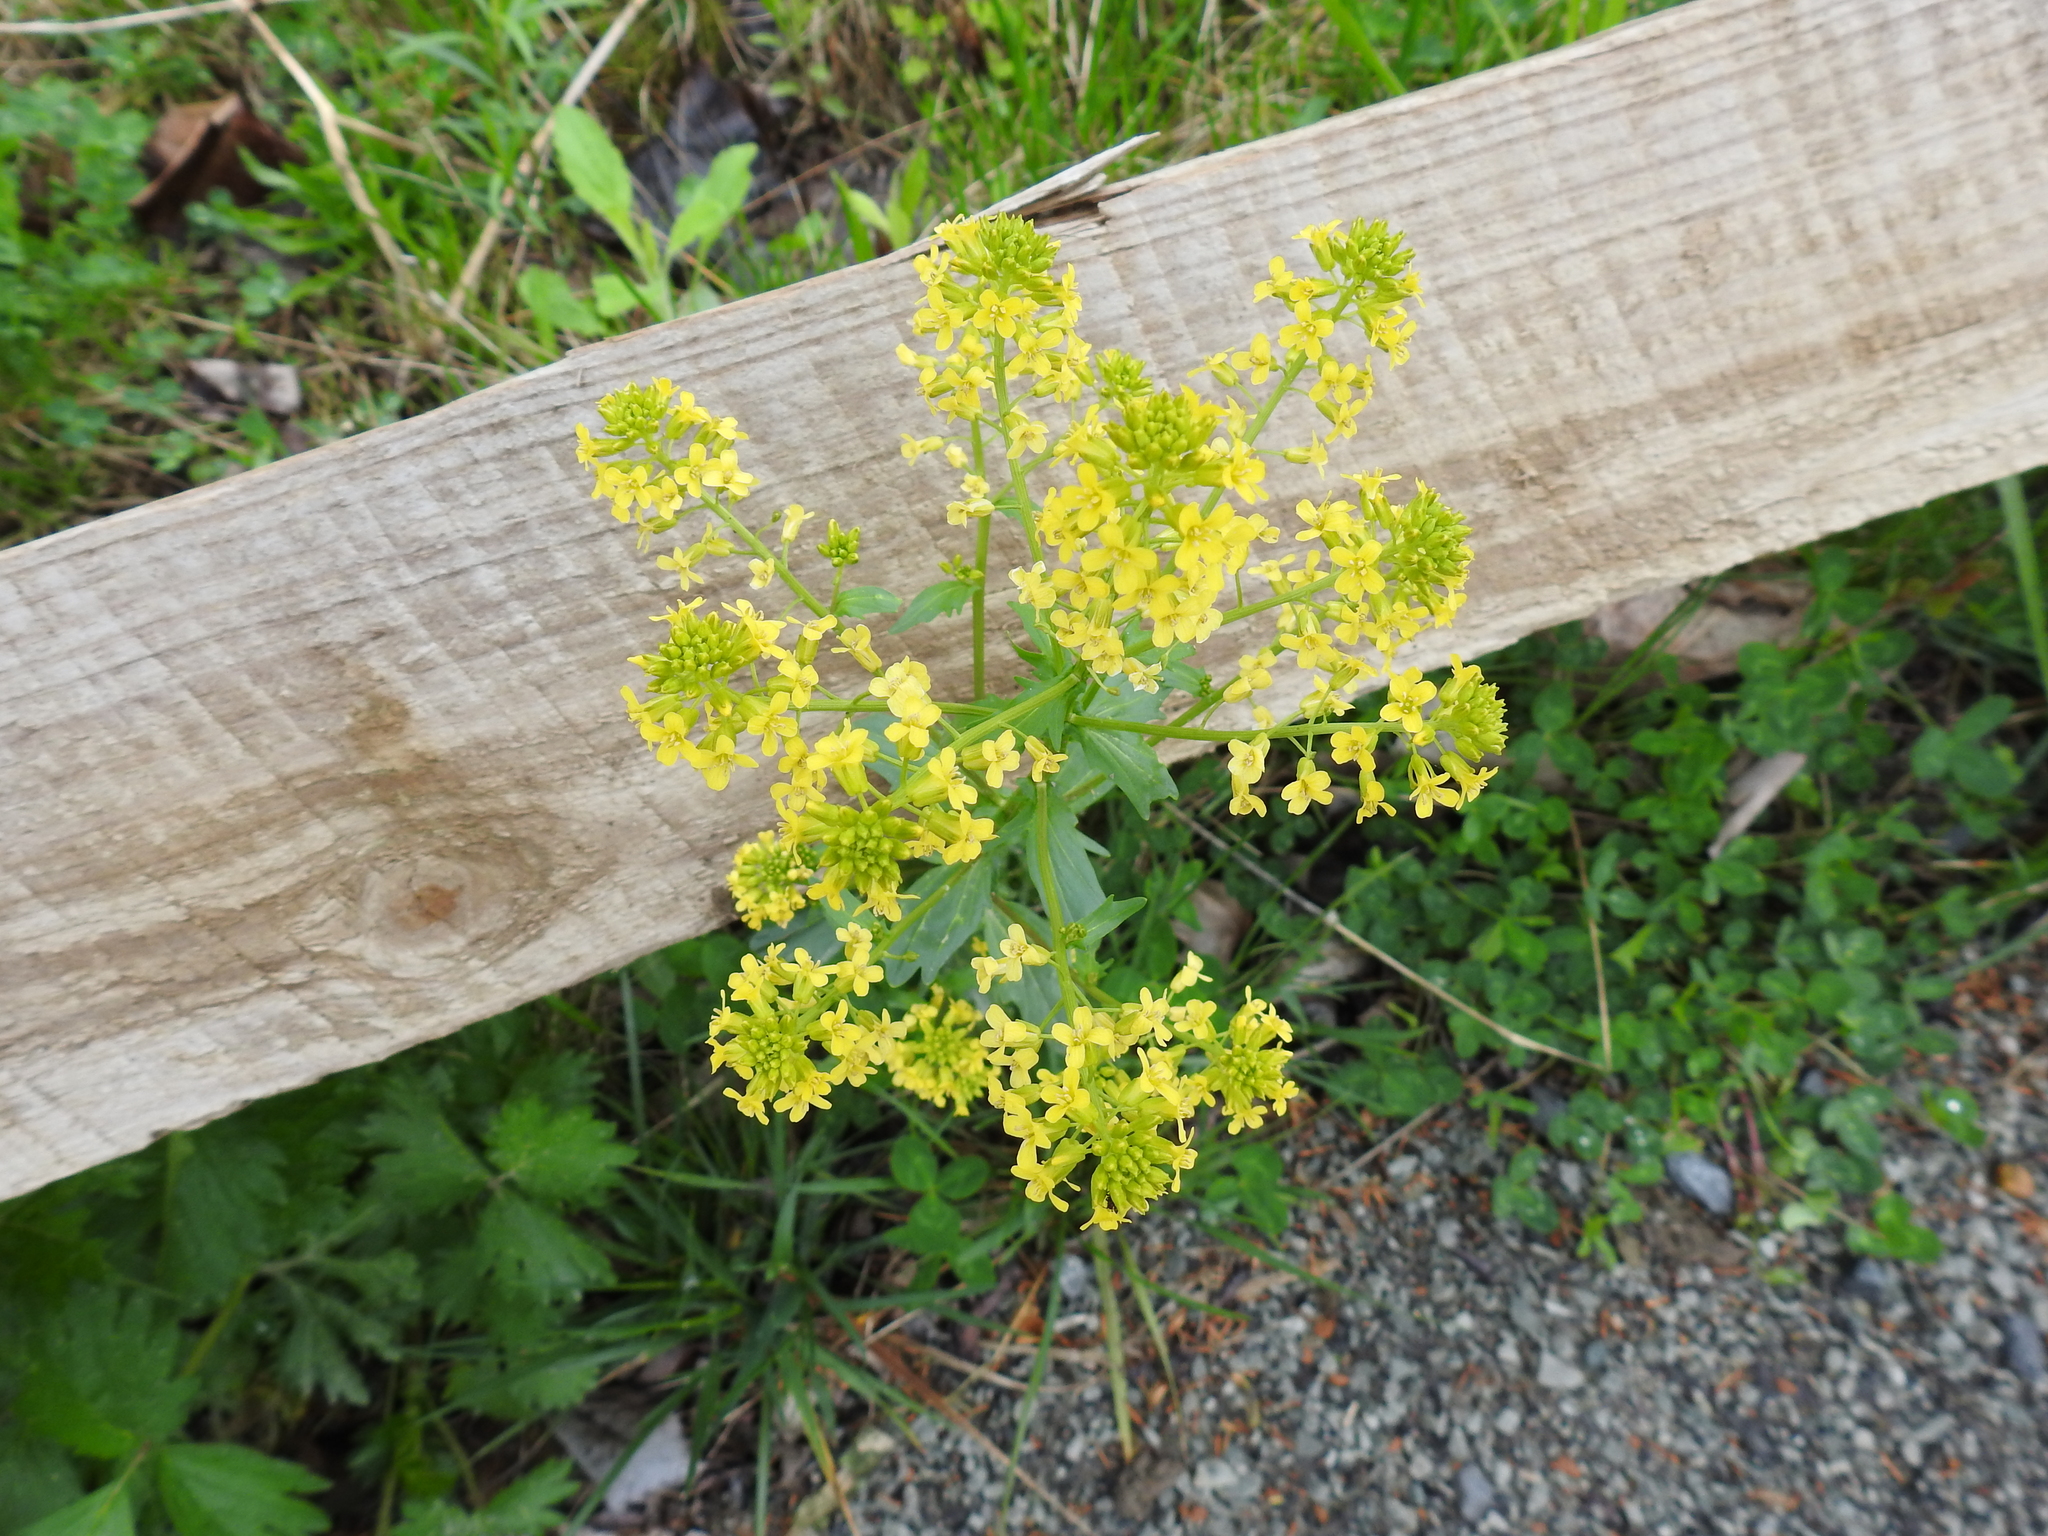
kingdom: Plantae
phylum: Tracheophyta
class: Magnoliopsida
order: Brassicales
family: Brassicaceae
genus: Barbarea
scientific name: Barbarea vulgaris
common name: Cressy-greens
